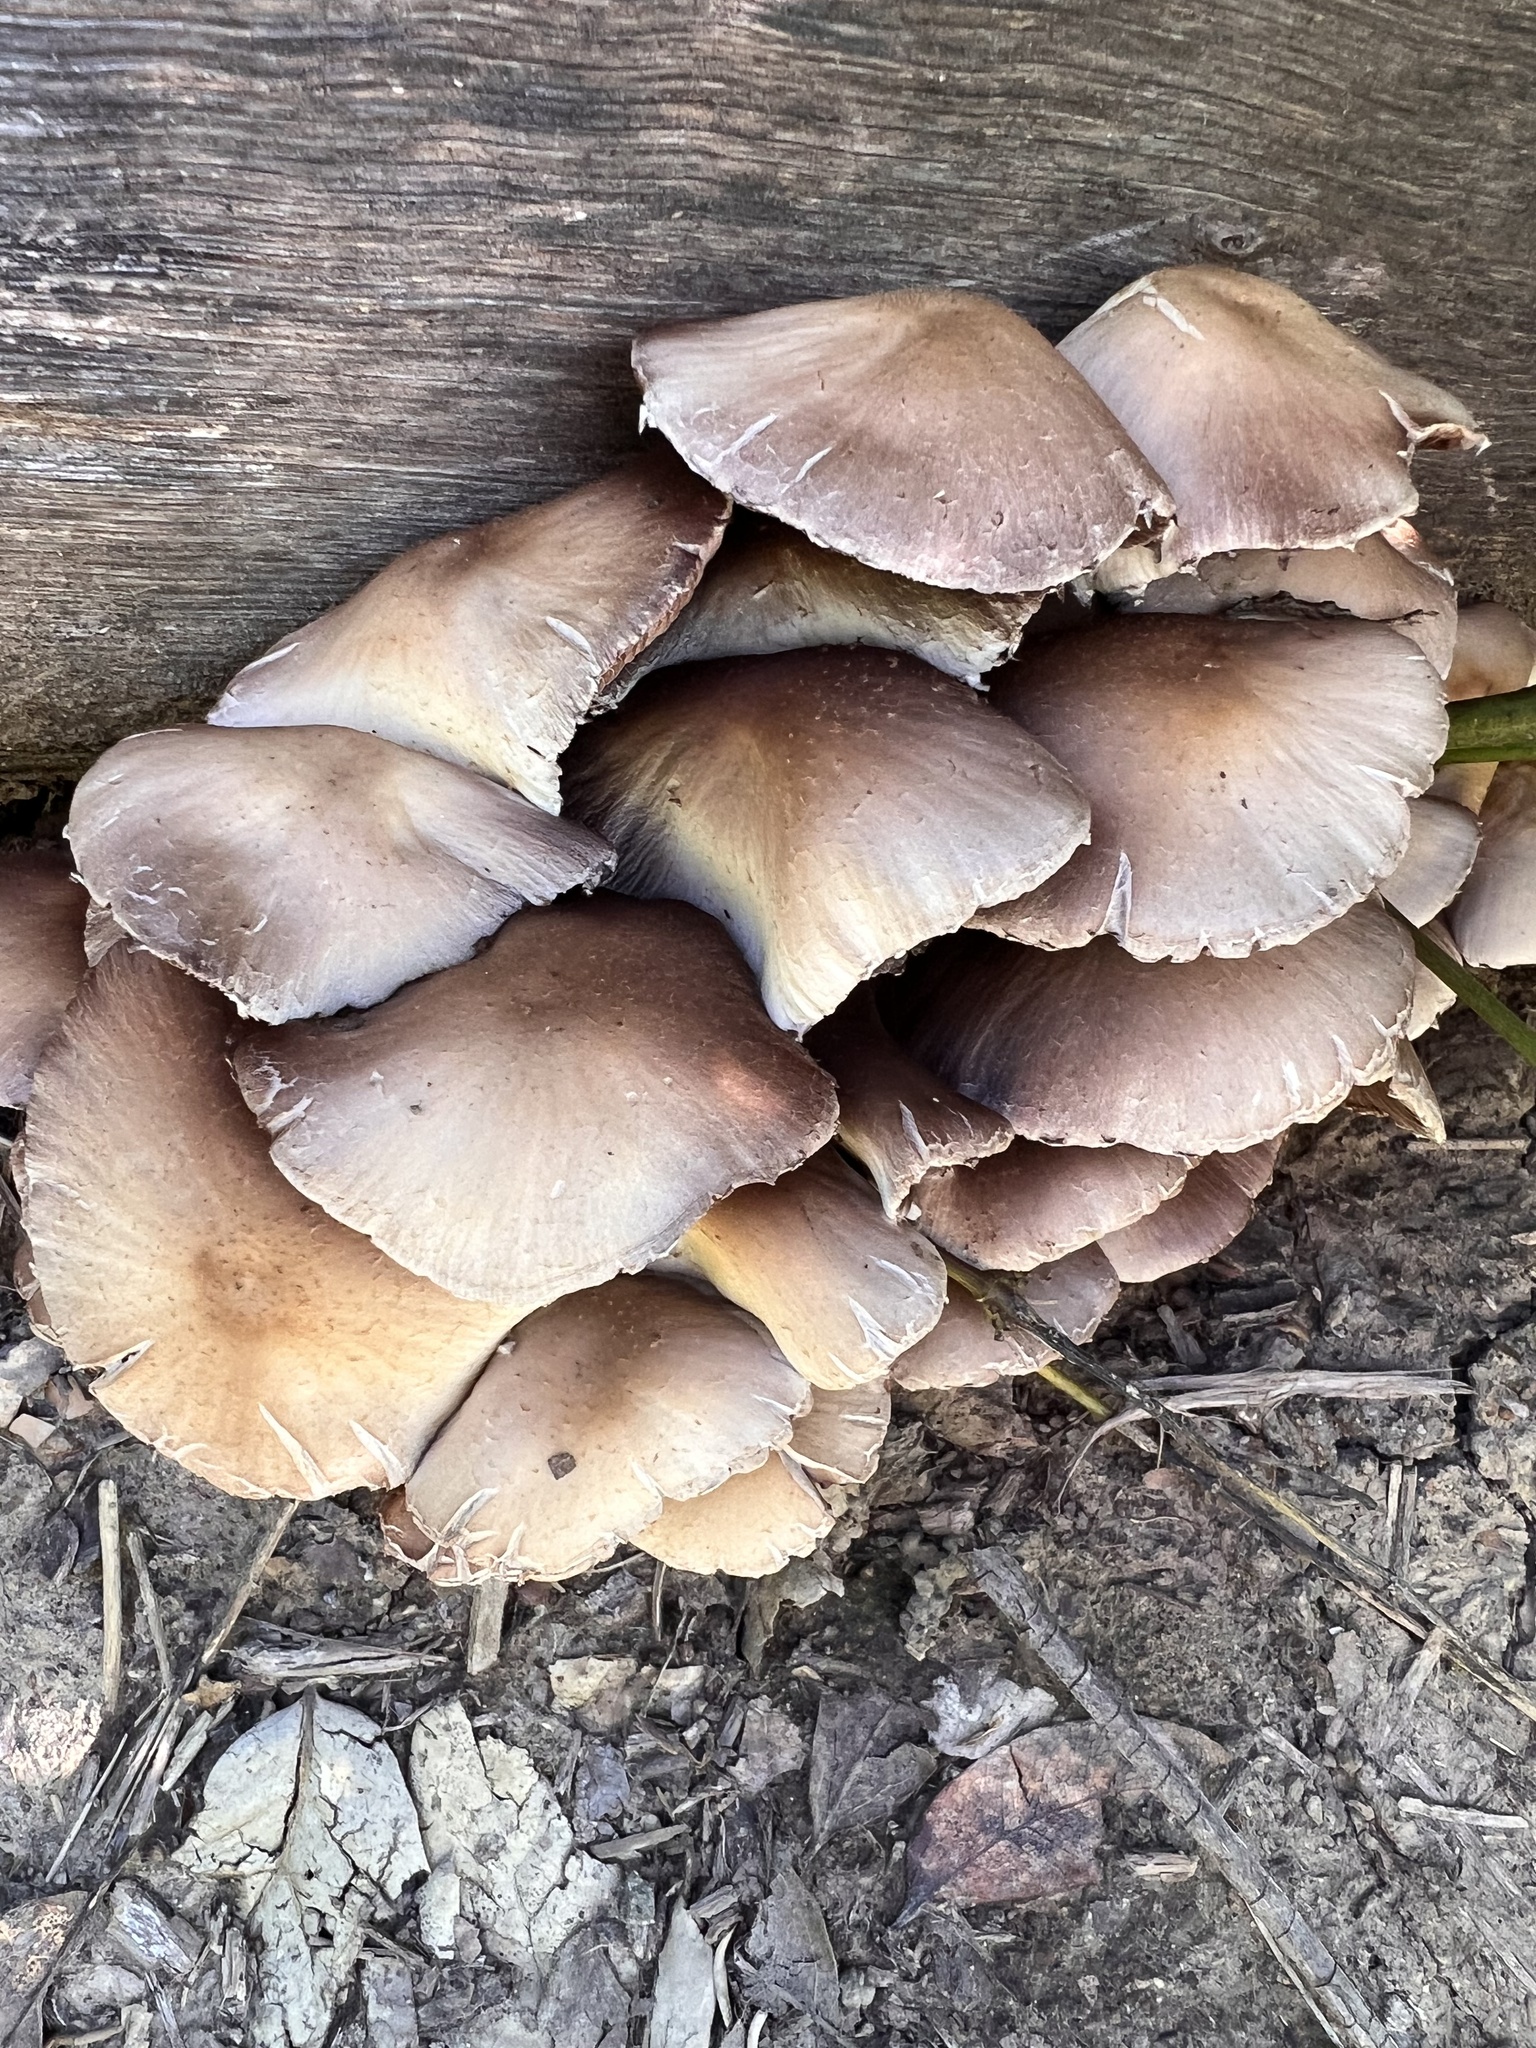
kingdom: Fungi
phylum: Basidiomycota
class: Agaricomycetes
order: Agaricales
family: Psathyrellaceae
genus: Candolleomyces
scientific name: Candolleomyces candolleanus
